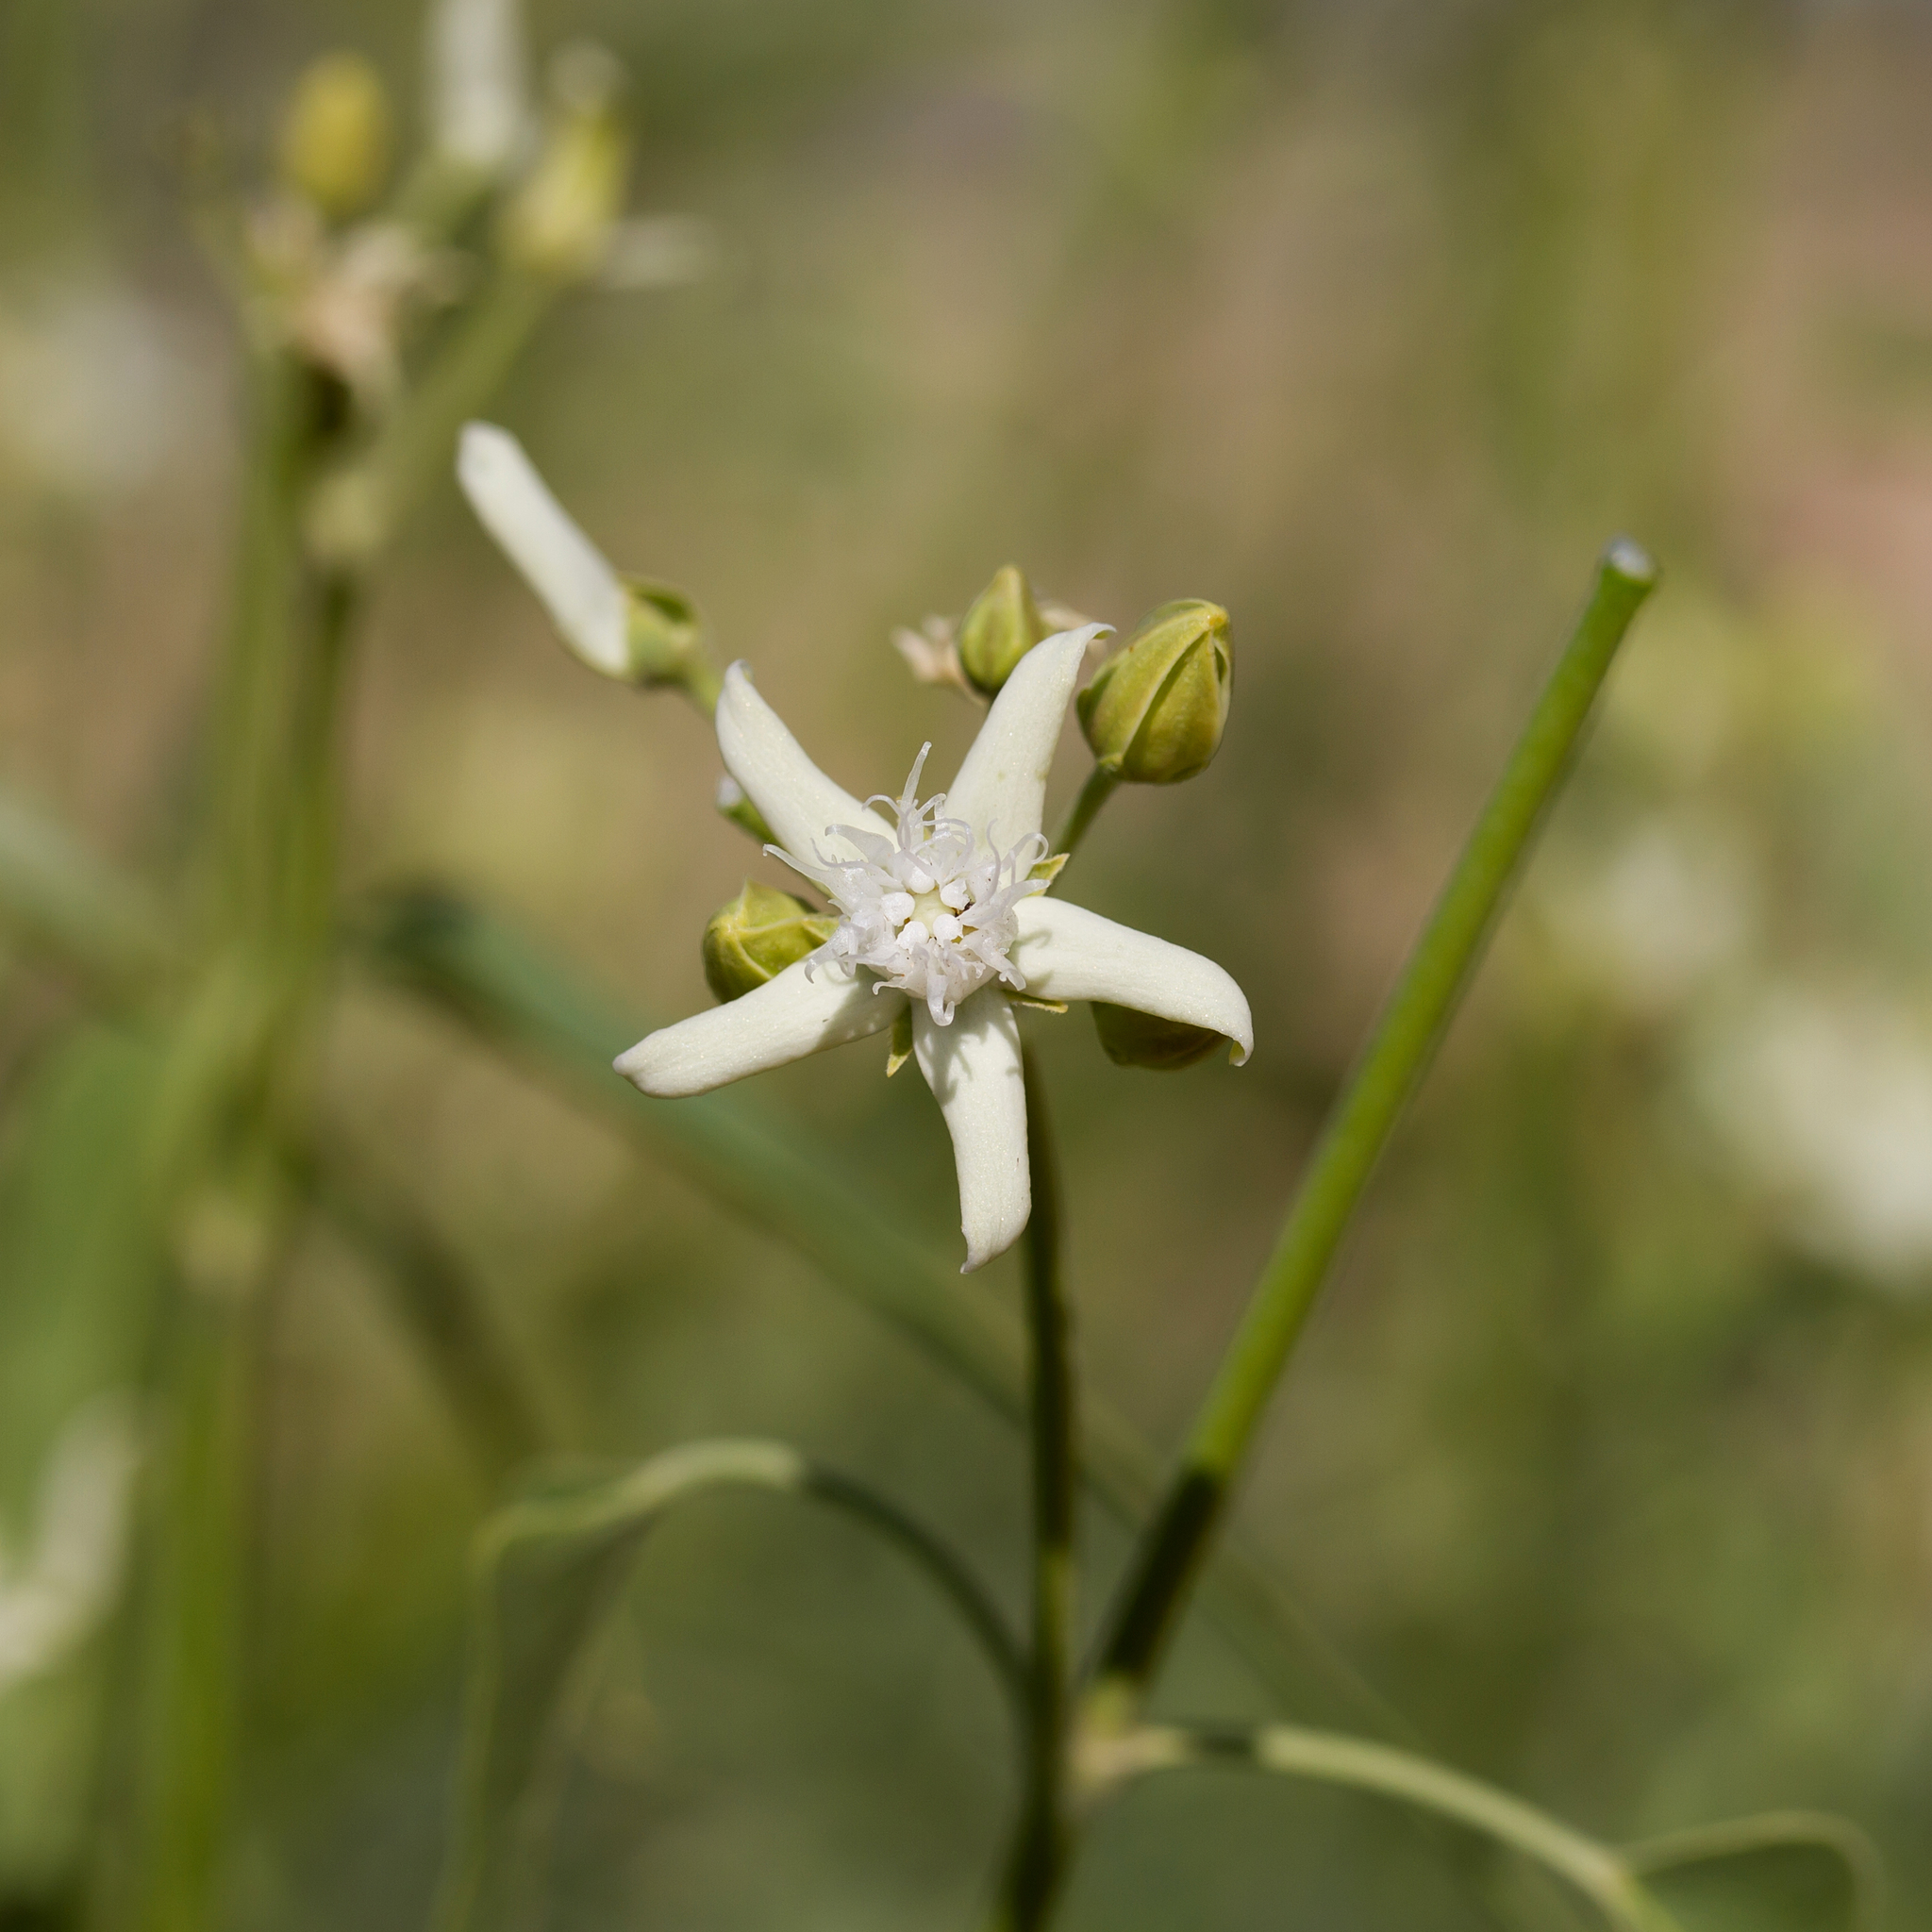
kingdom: Plantae
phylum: Tracheophyta
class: Magnoliopsida
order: Gentianales
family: Apocynaceae
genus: Vincetoxicum
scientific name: Vincetoxicum floribundum
